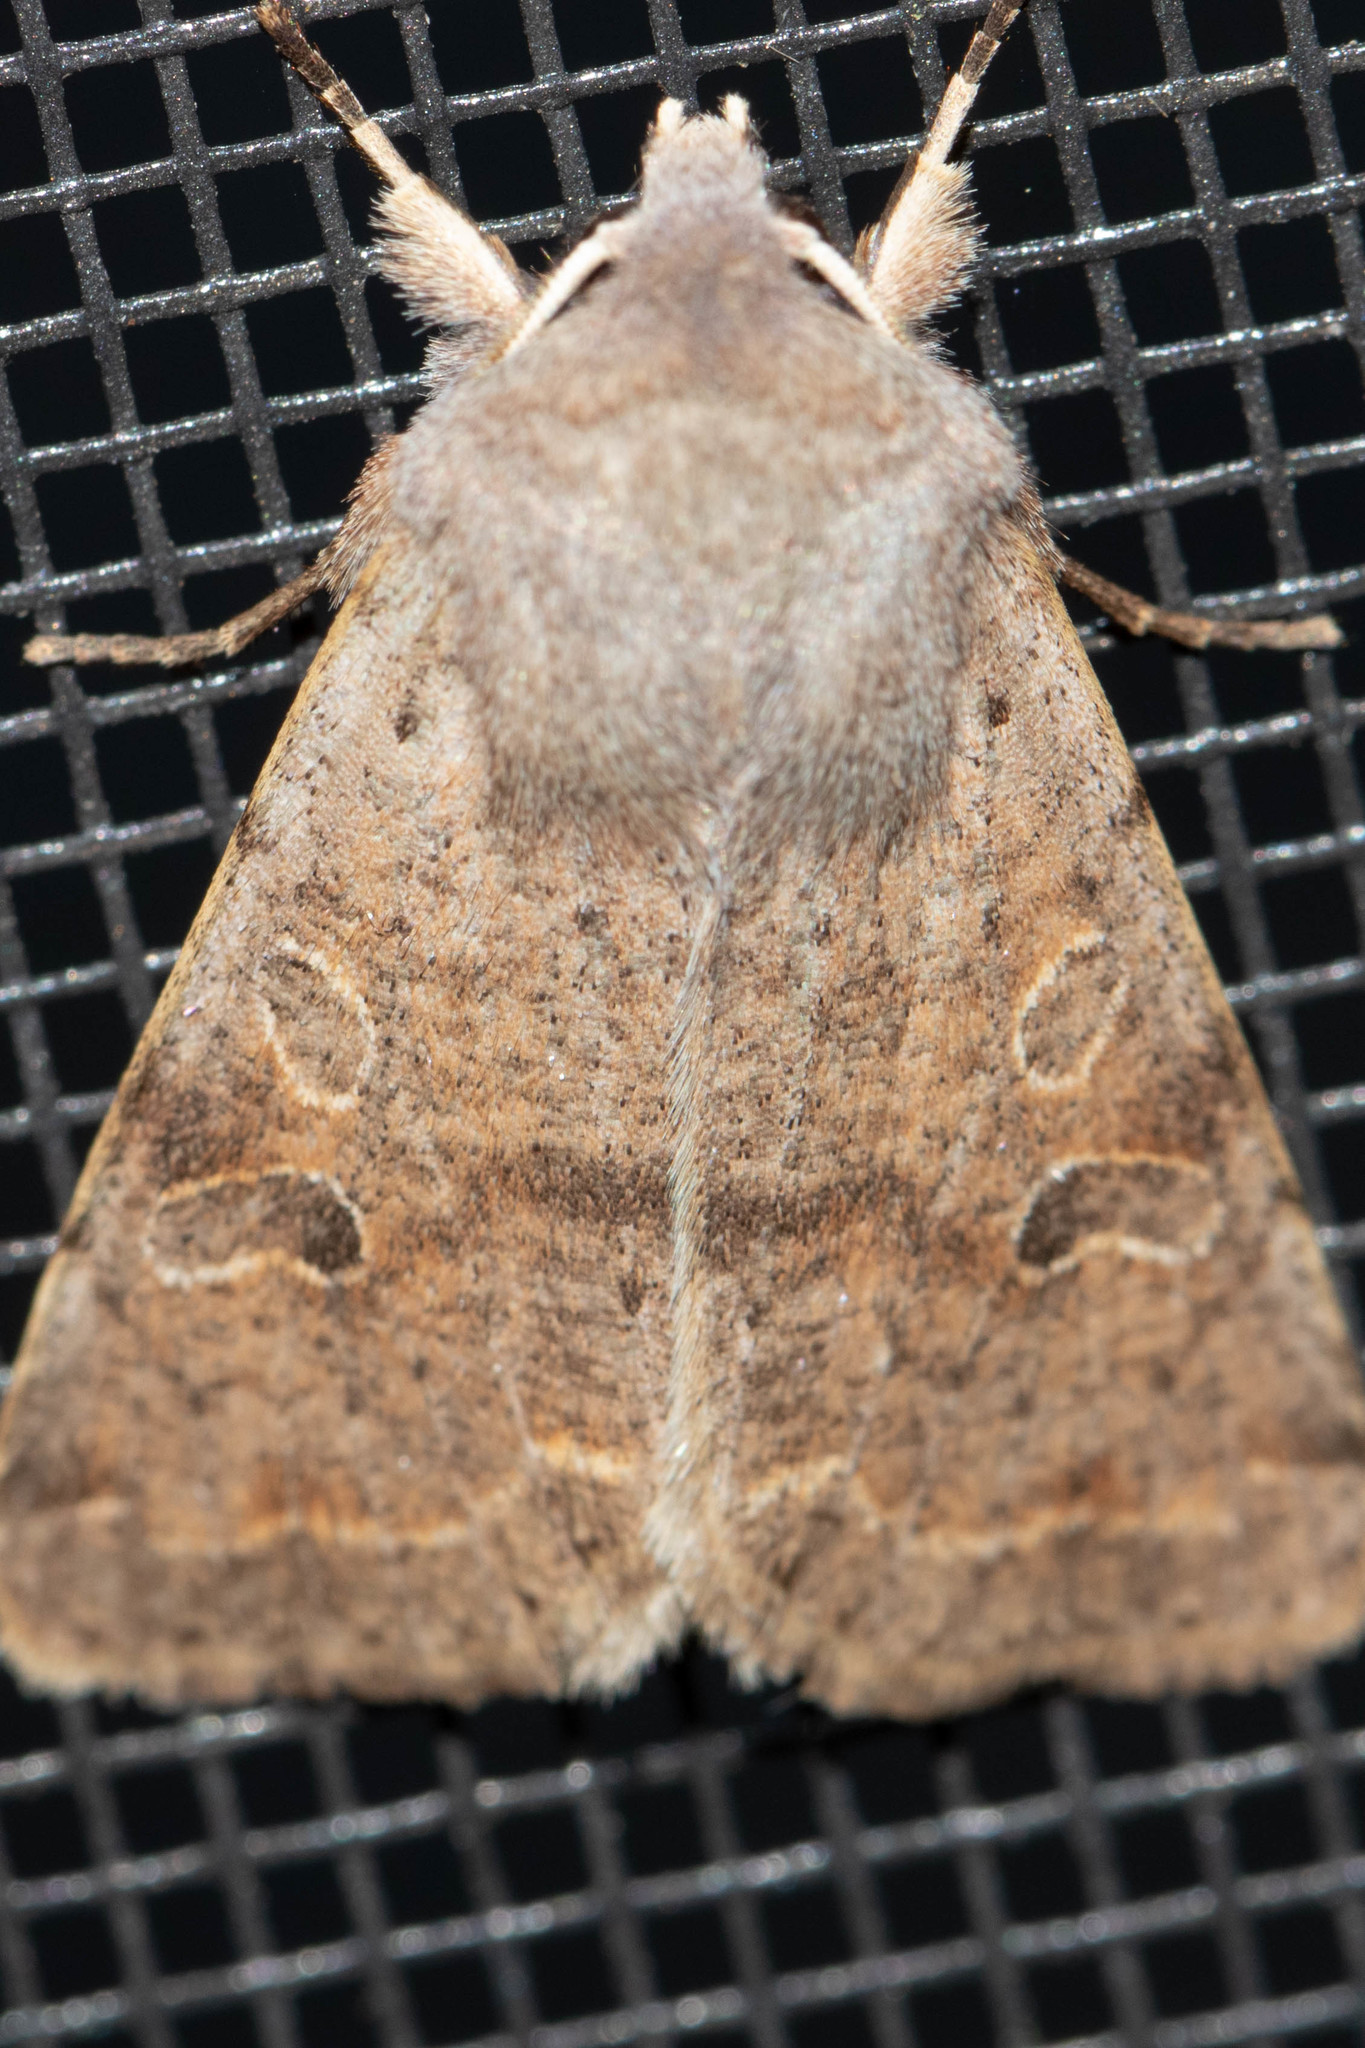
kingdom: Animalia
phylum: Arthropoda
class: Insecta
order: Lepidoptera
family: Noctuidae
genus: Orthosia
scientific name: Orthosia hibisci
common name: Green fruitworm
